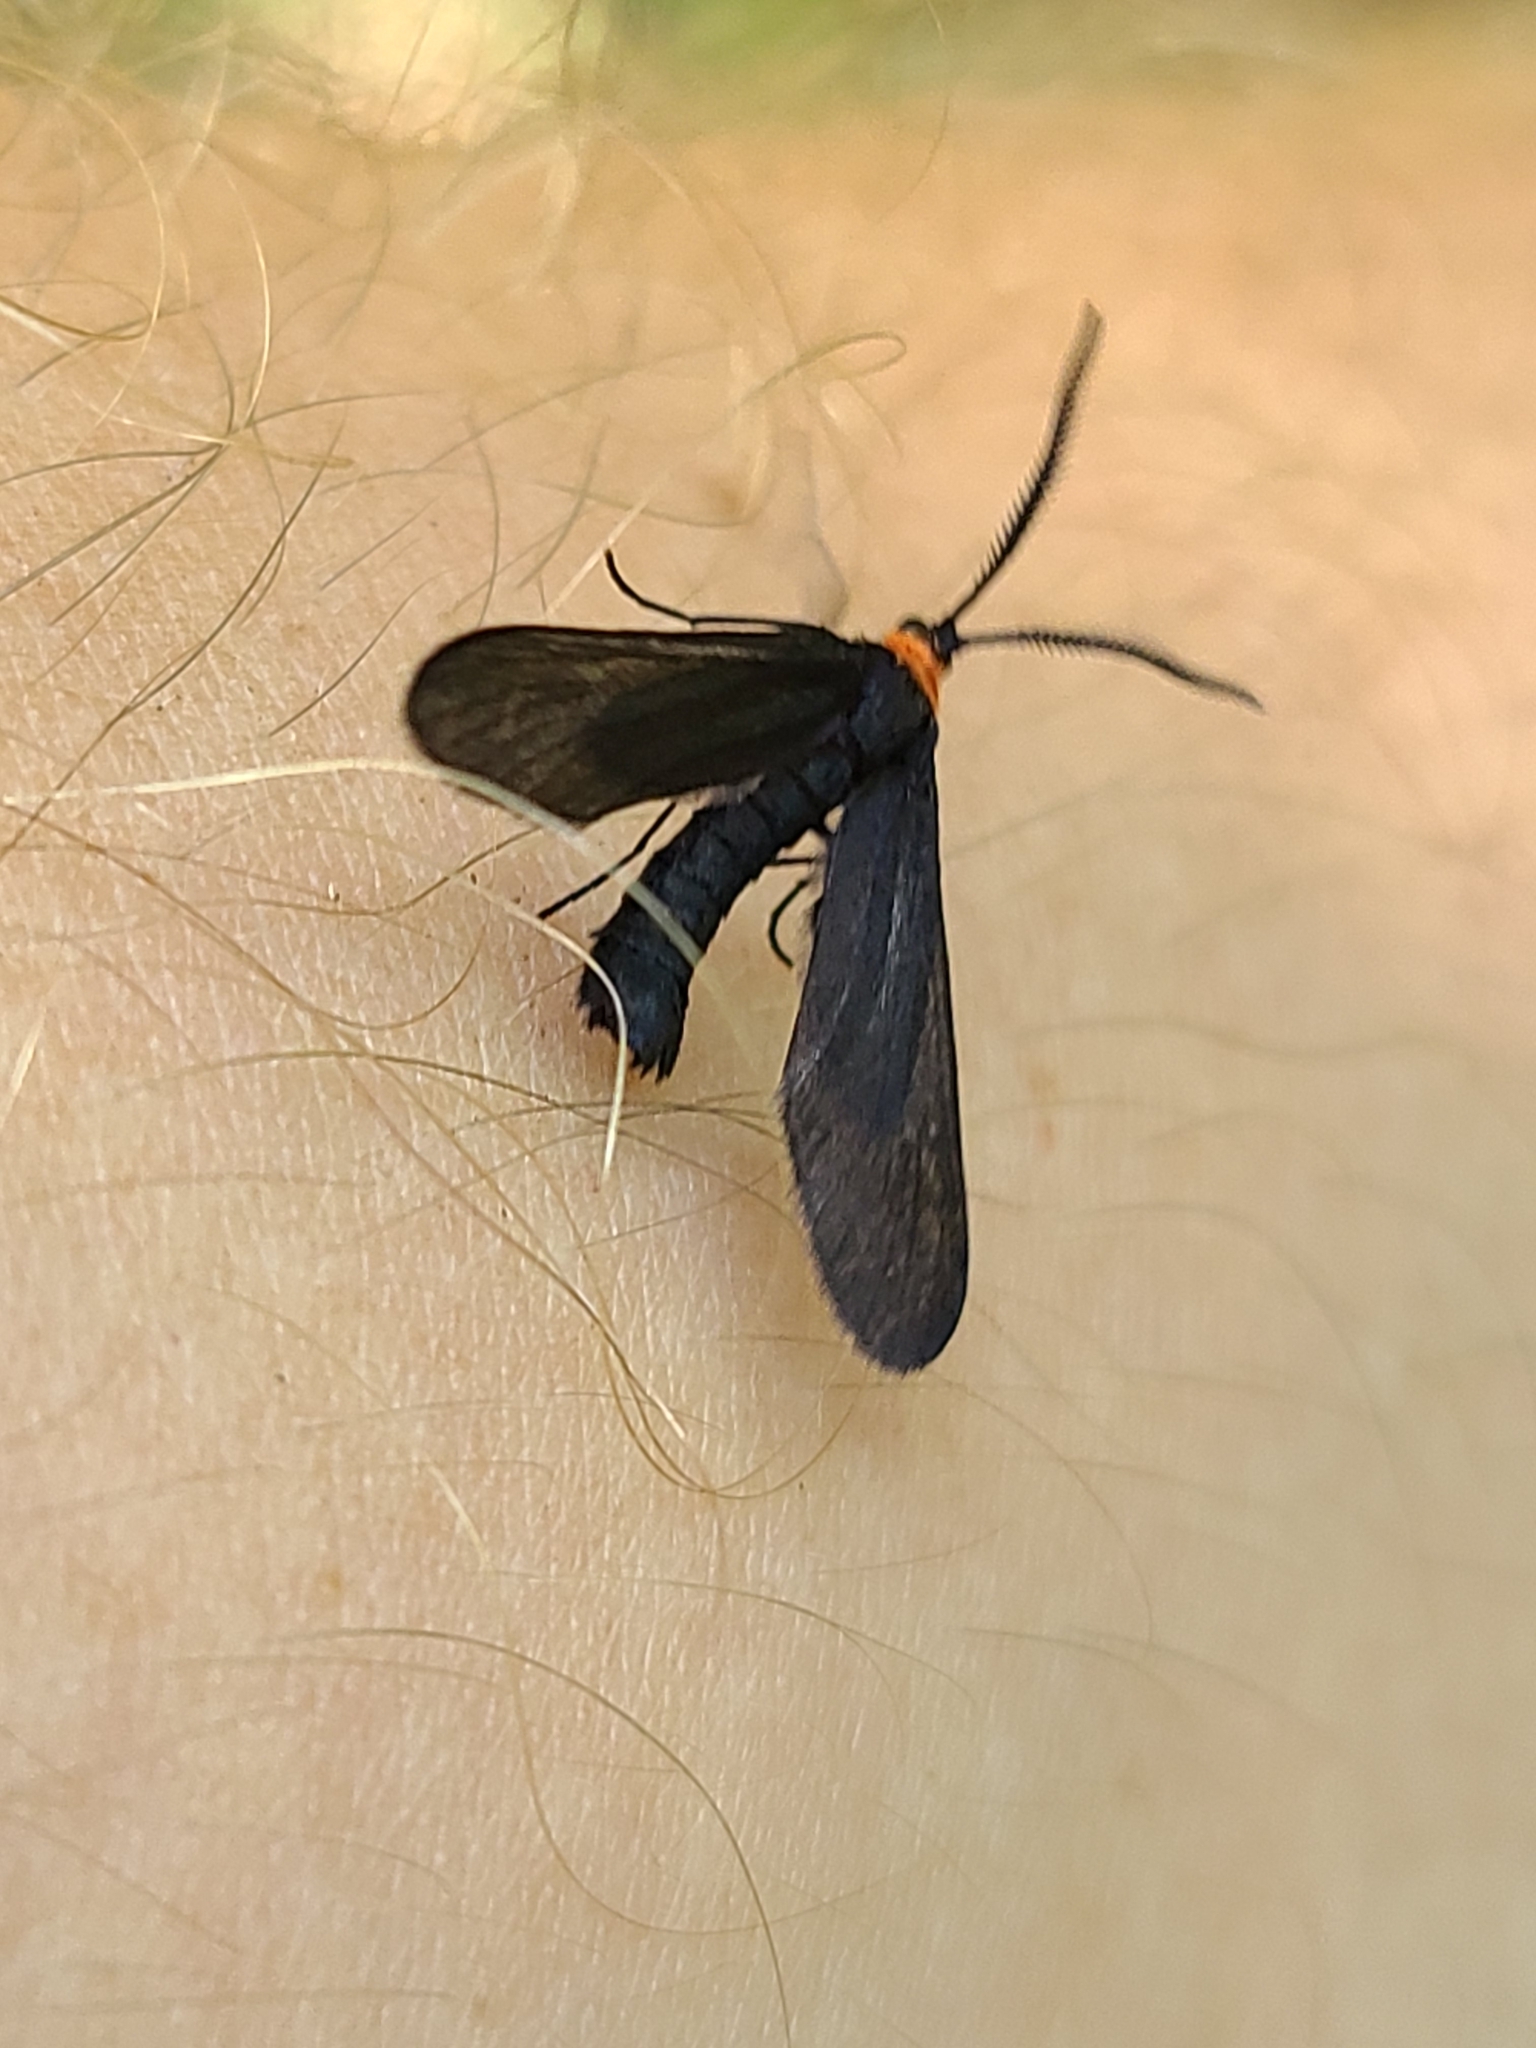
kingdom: Animalia
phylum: Arthropoda
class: Insecta
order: Lepidoptera
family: Zygaenidae
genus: Harrisina
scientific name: Harrisina americana
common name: Grapeleaf skeletonizer moth
